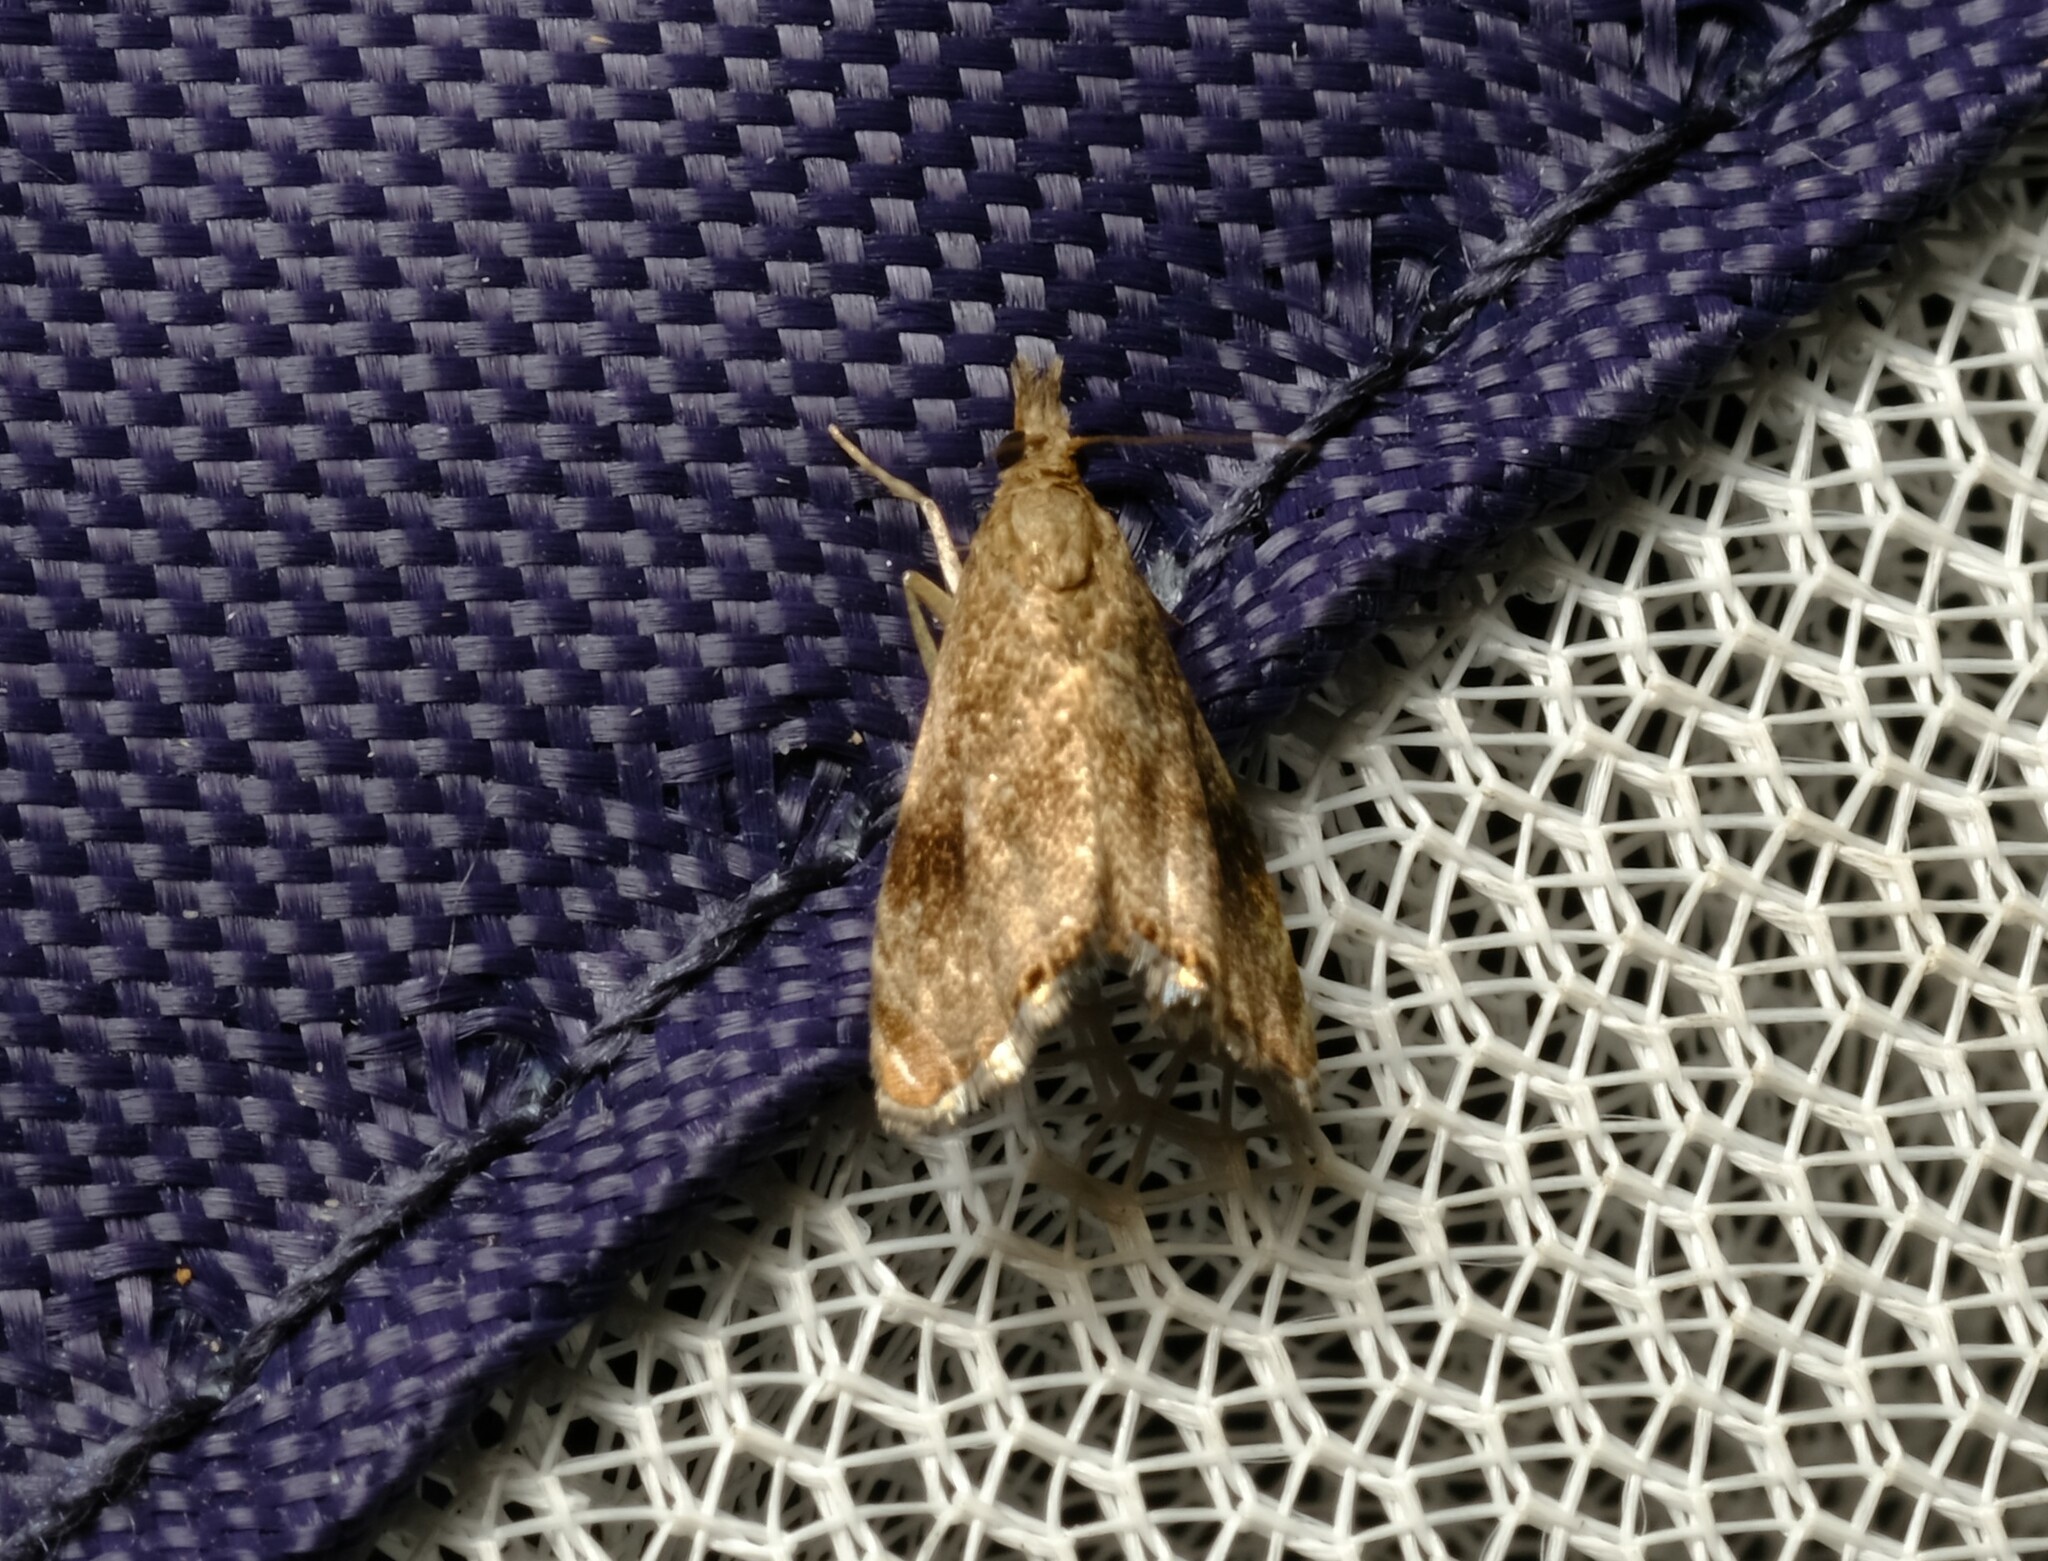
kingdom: Animalia
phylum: Arthropoda
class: Insecta
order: Lepidoptera
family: Crambidae
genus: Glaucocharis
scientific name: Glaucocharis dilatella
